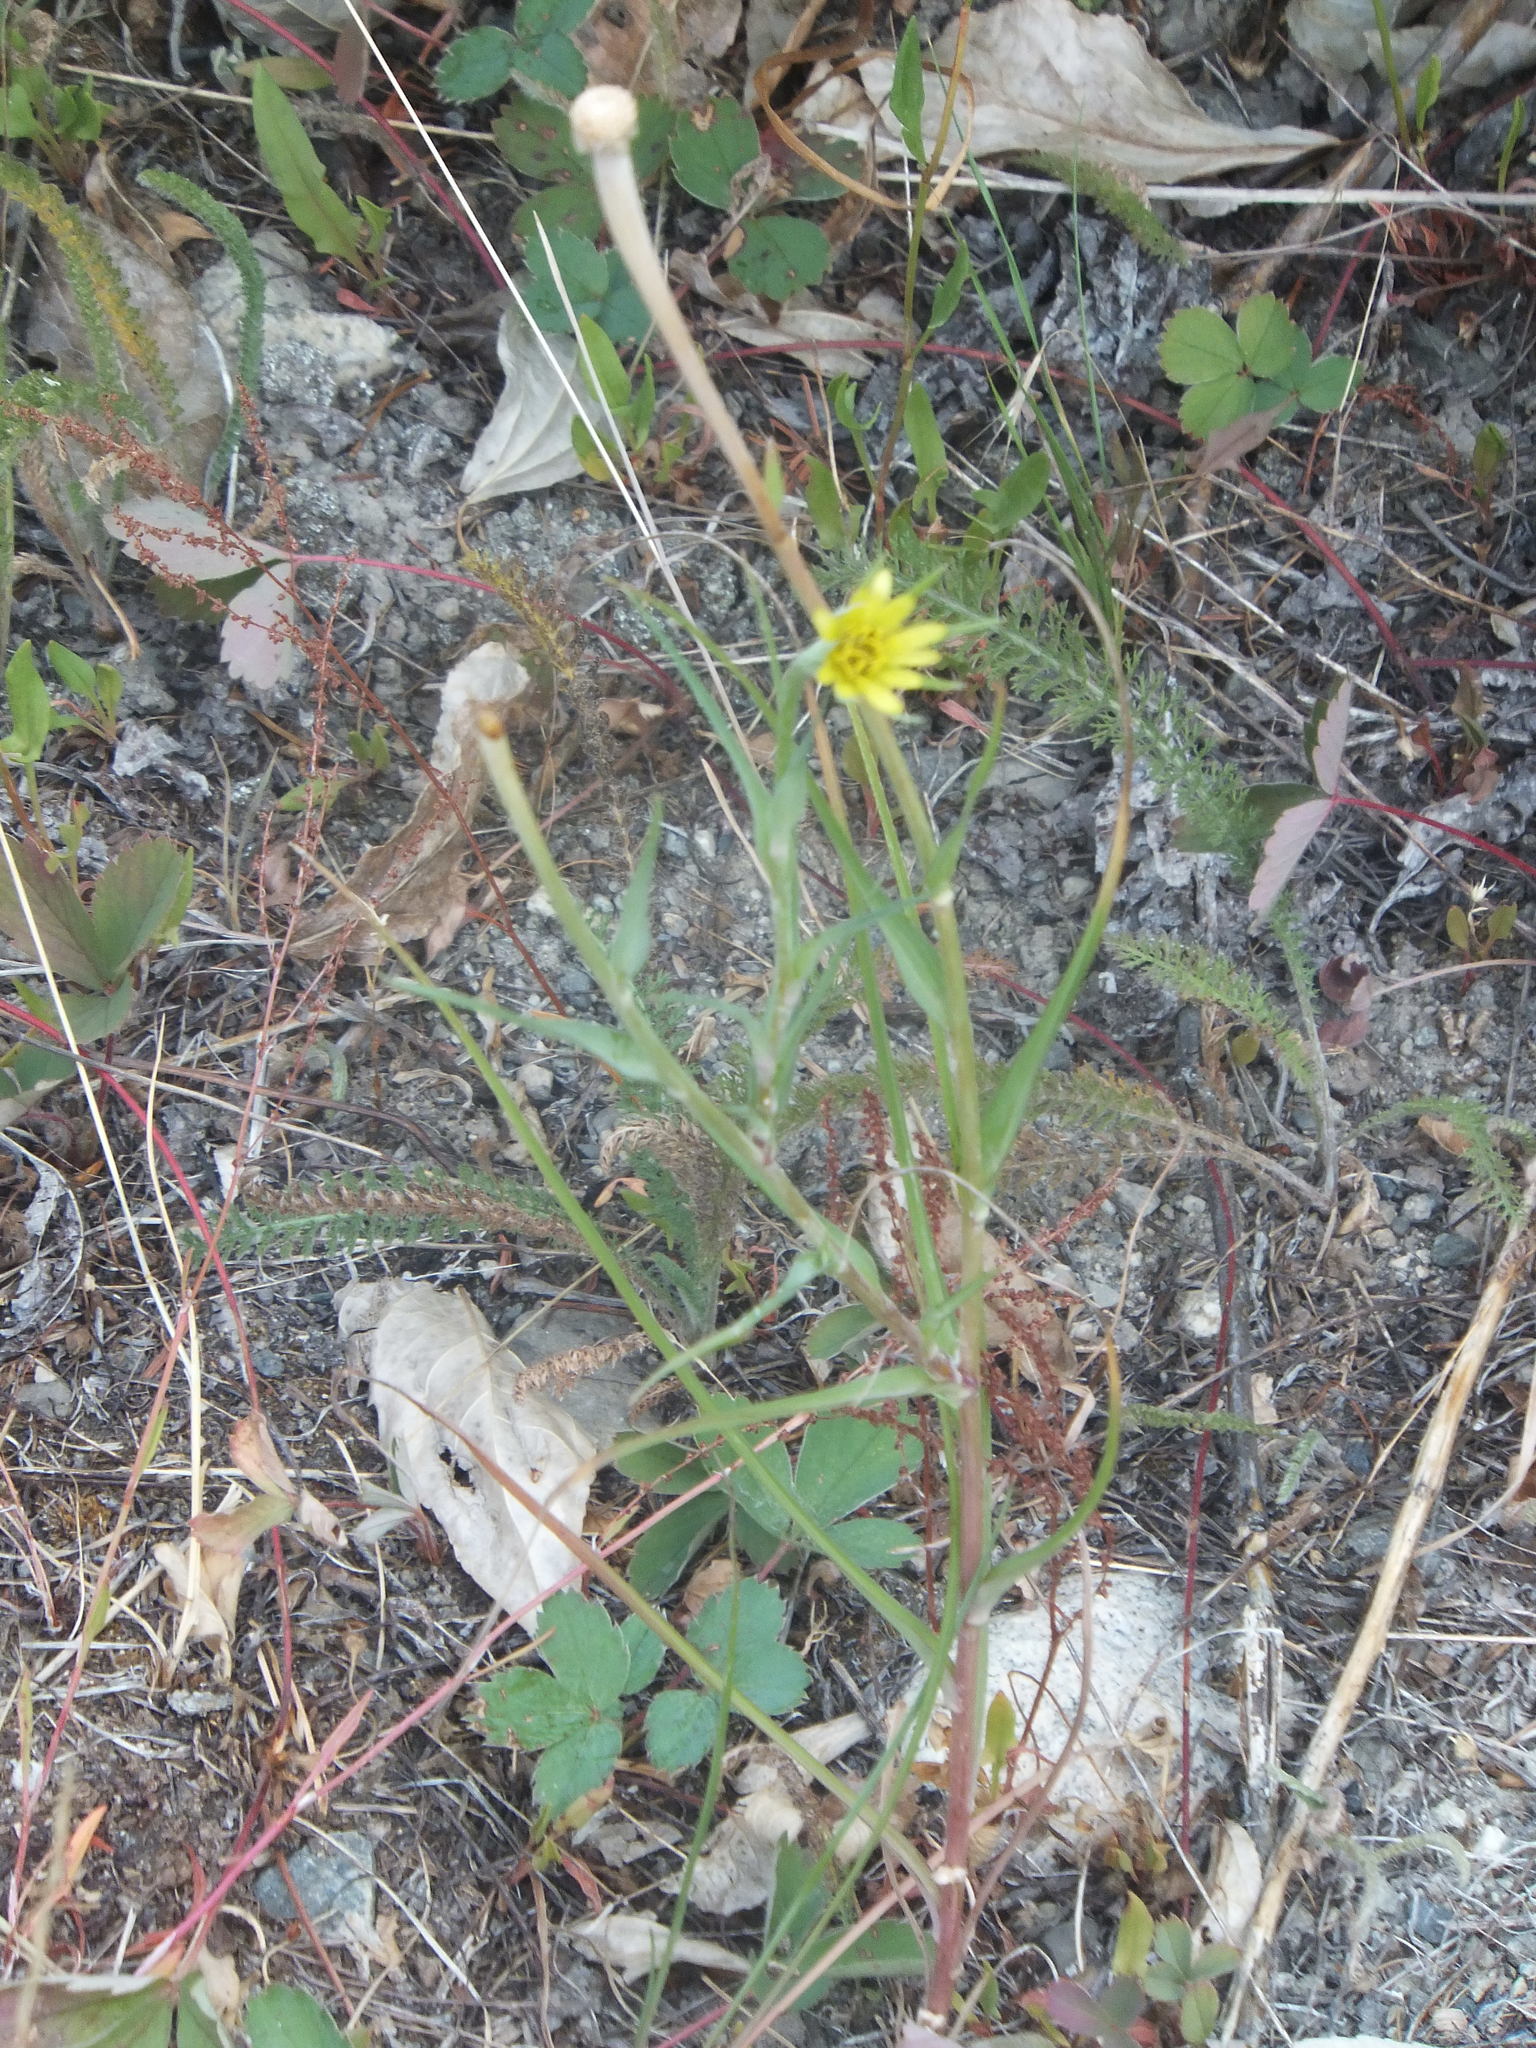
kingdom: Plantae
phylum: Tracheophyta
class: Magnoliopsida
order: Asterales
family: Asteraceae
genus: Tragopogon
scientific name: Tragopogon dubius
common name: Yellow salsify
